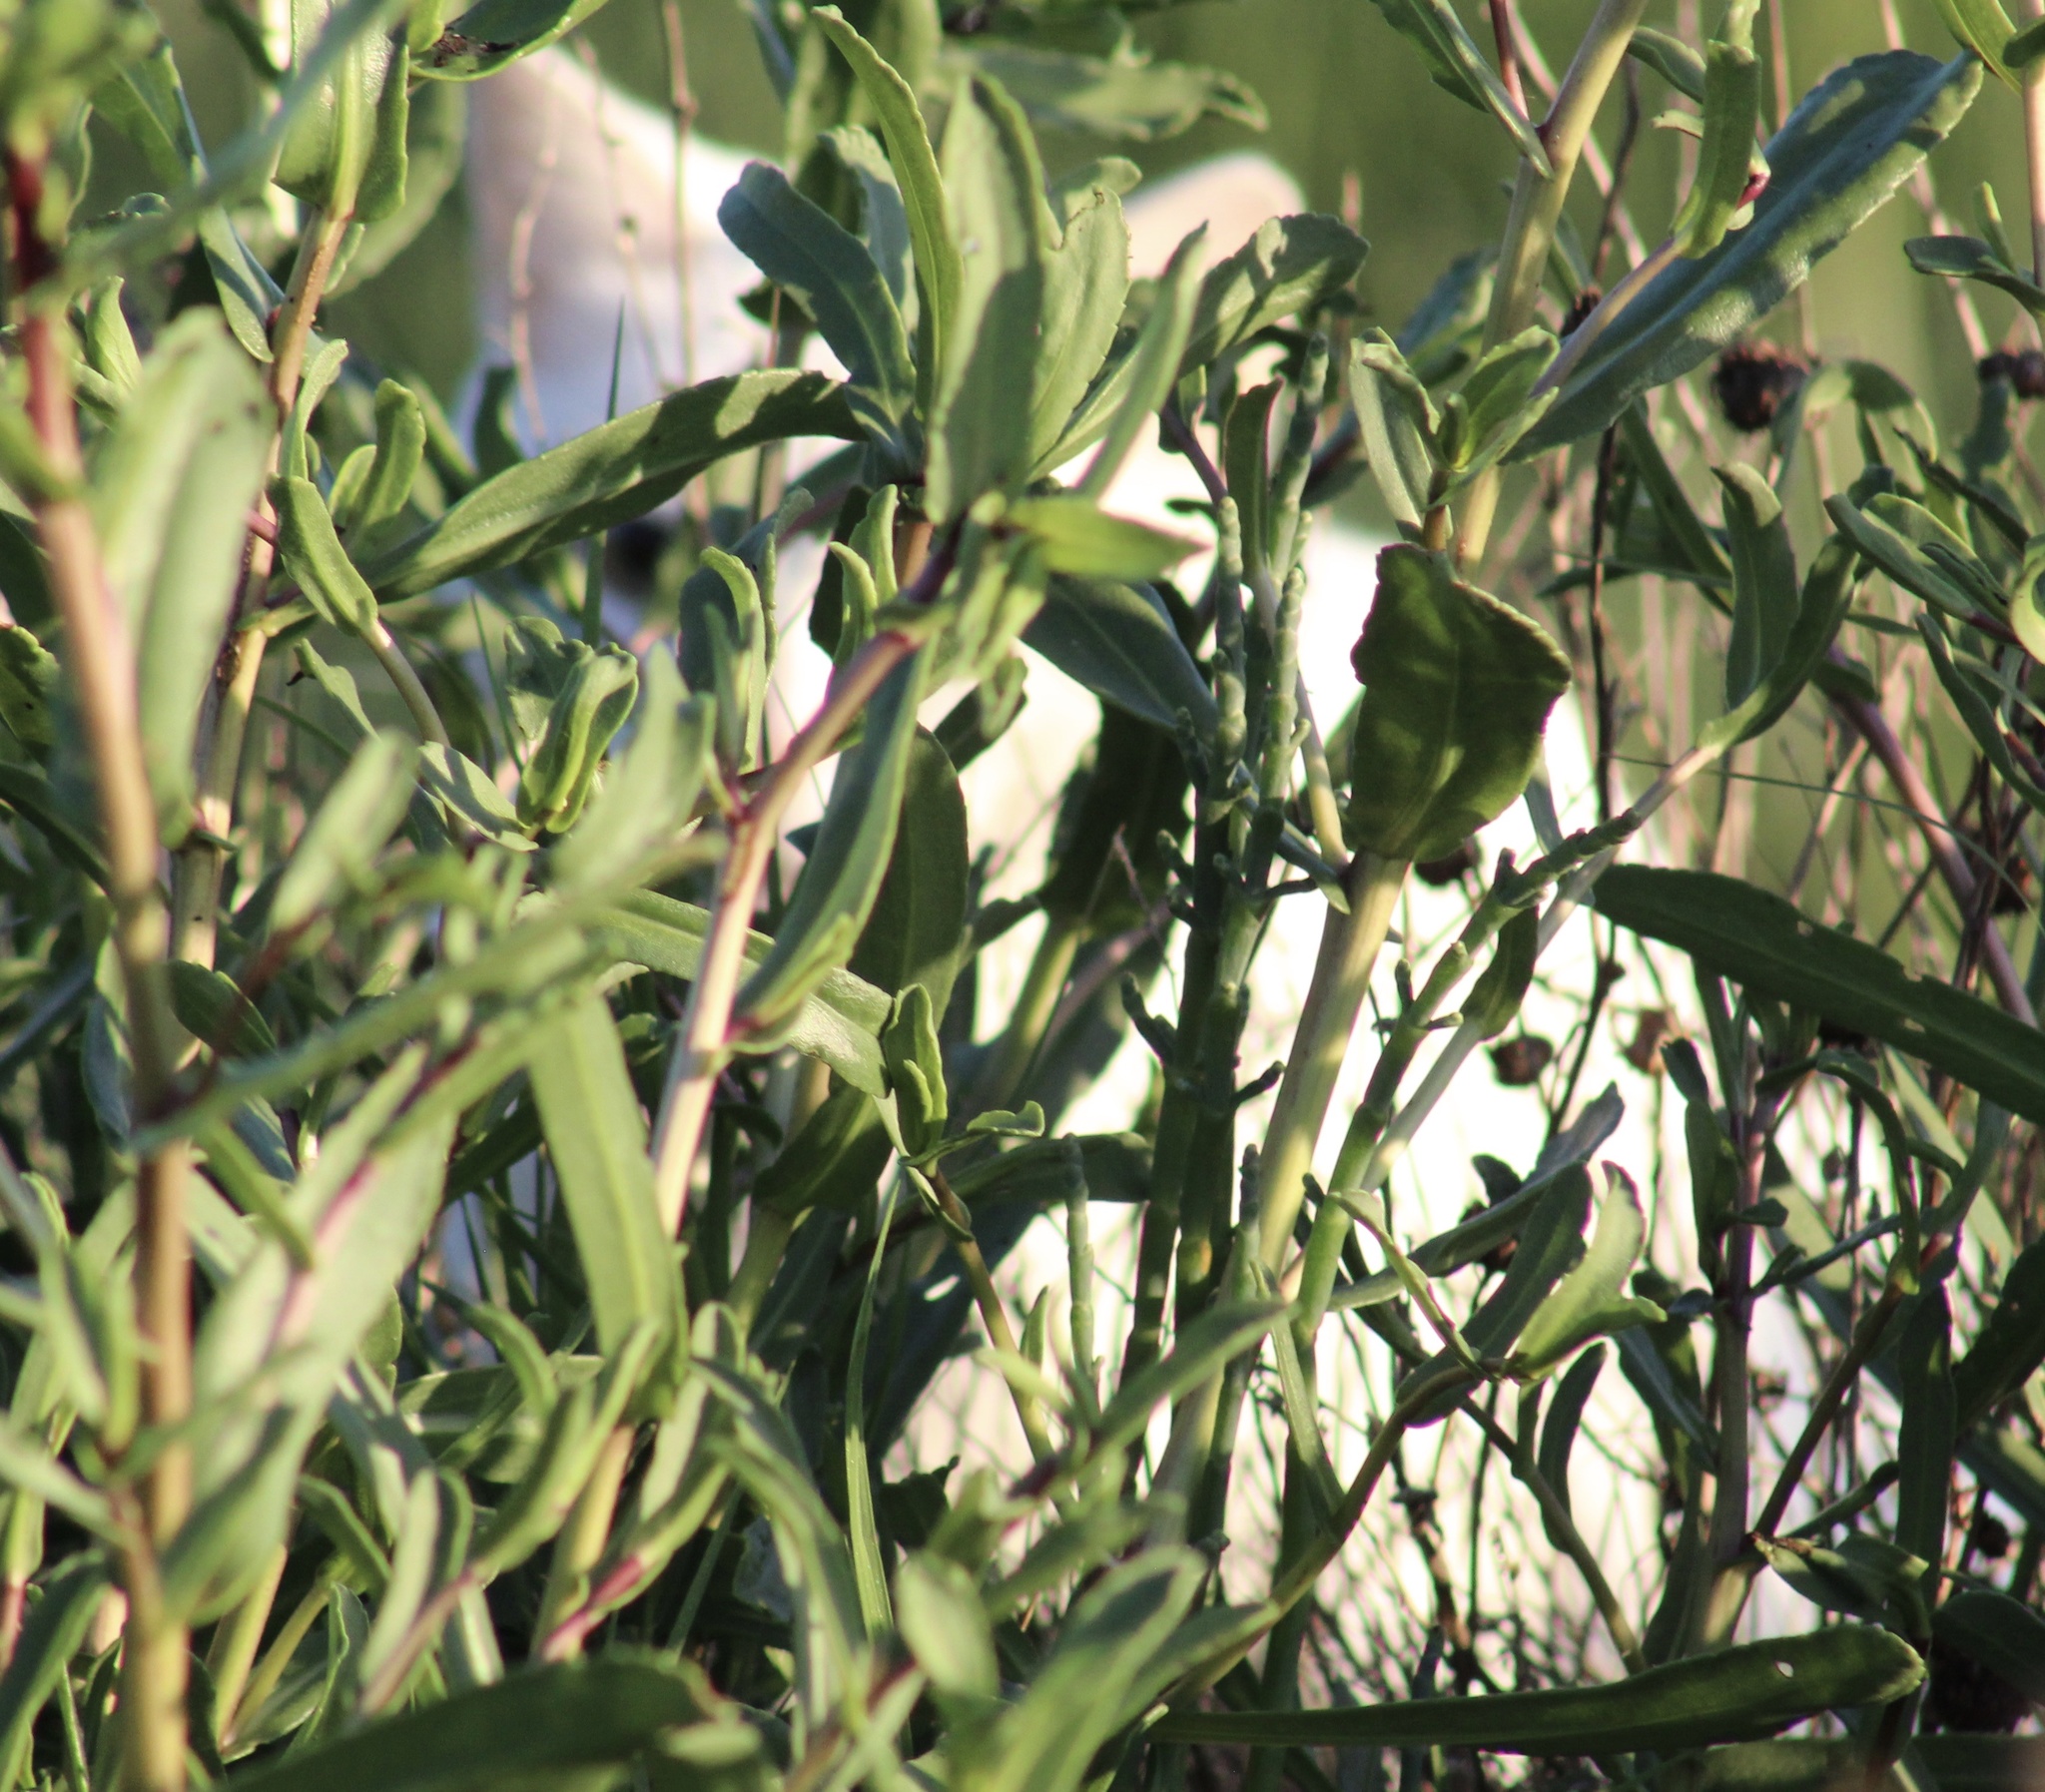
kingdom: Animalia
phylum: Chordata
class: Mammalia
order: Carnivora
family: Felidae
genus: Felis
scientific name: Felis catus
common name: Domestic cat
